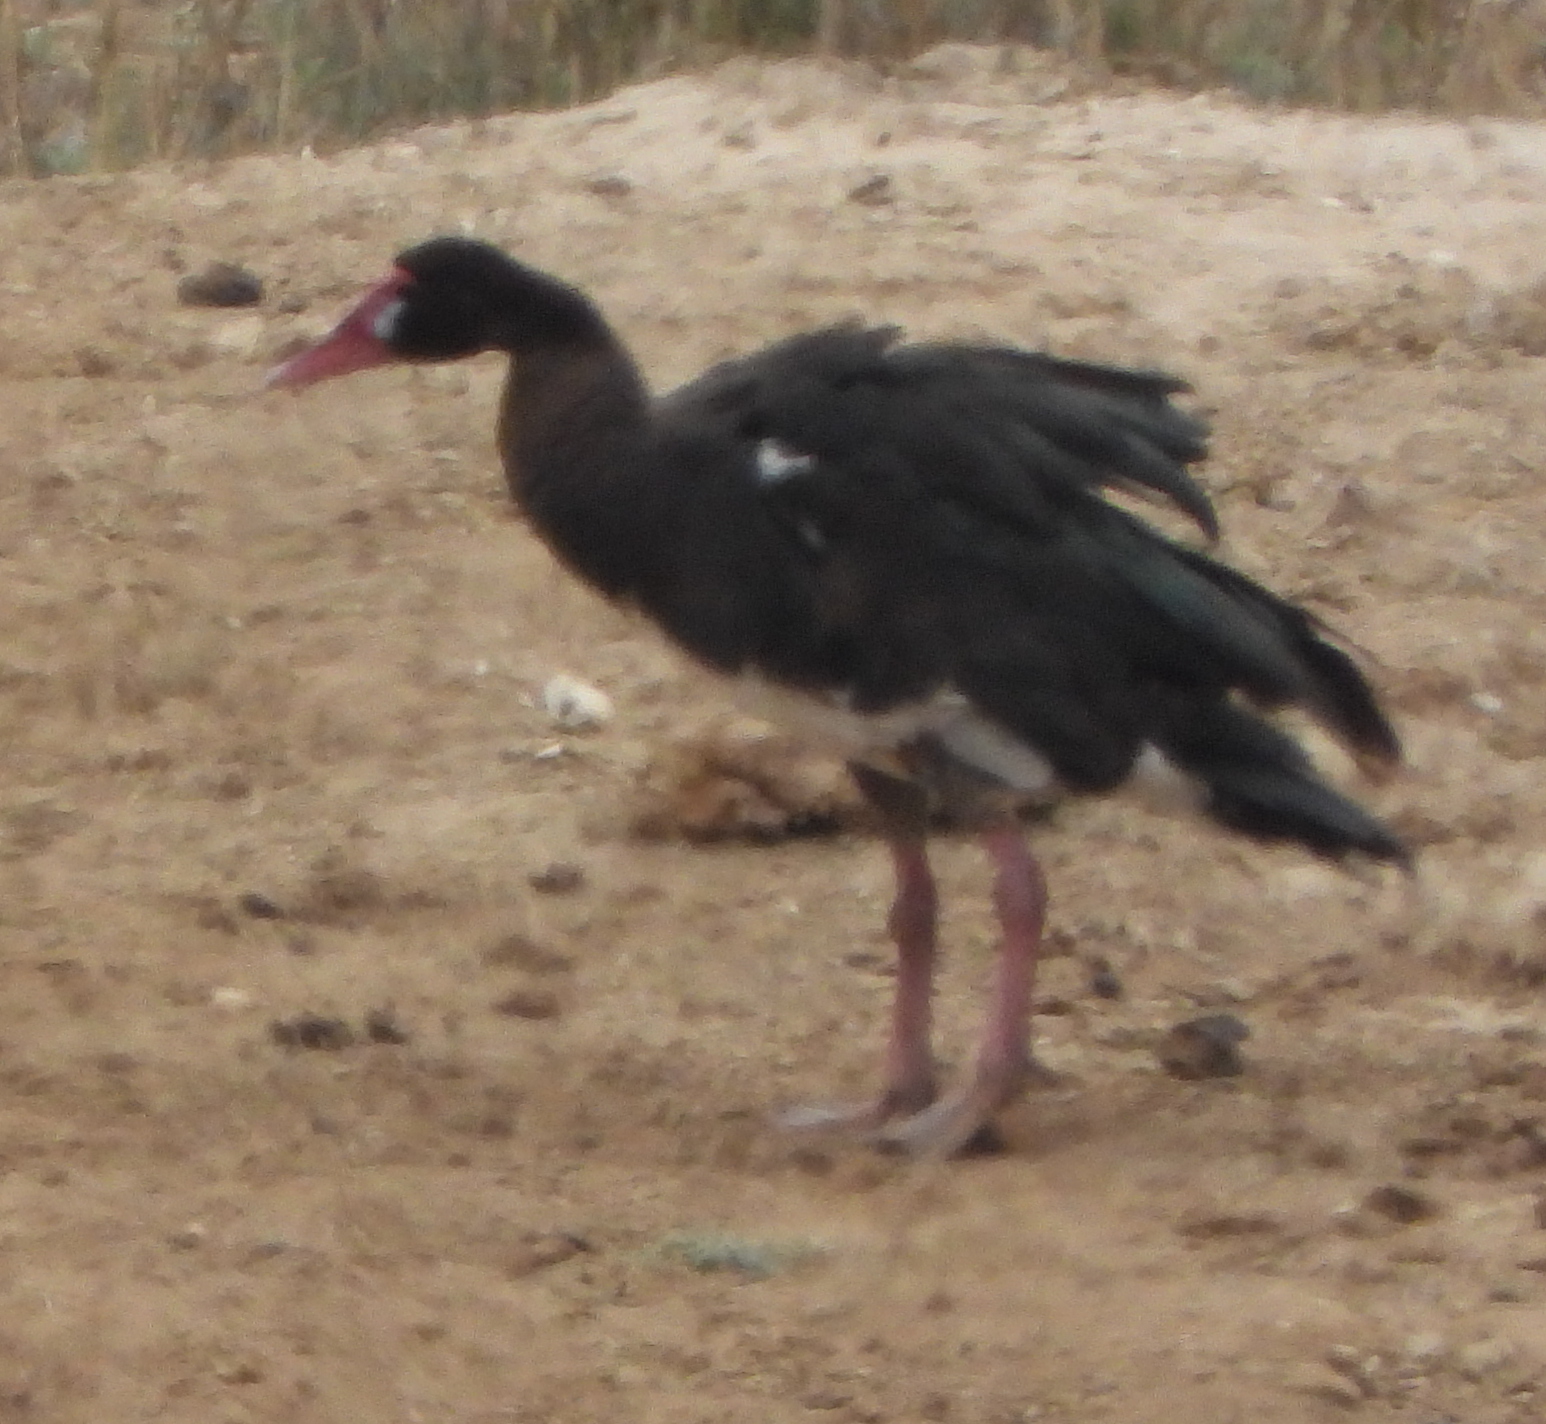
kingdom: Animalia
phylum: Chordata
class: Aves
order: Anseriformes
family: Anatidae
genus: Plectropterus
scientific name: Plectropterus gambensis
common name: Spur-winged goose
